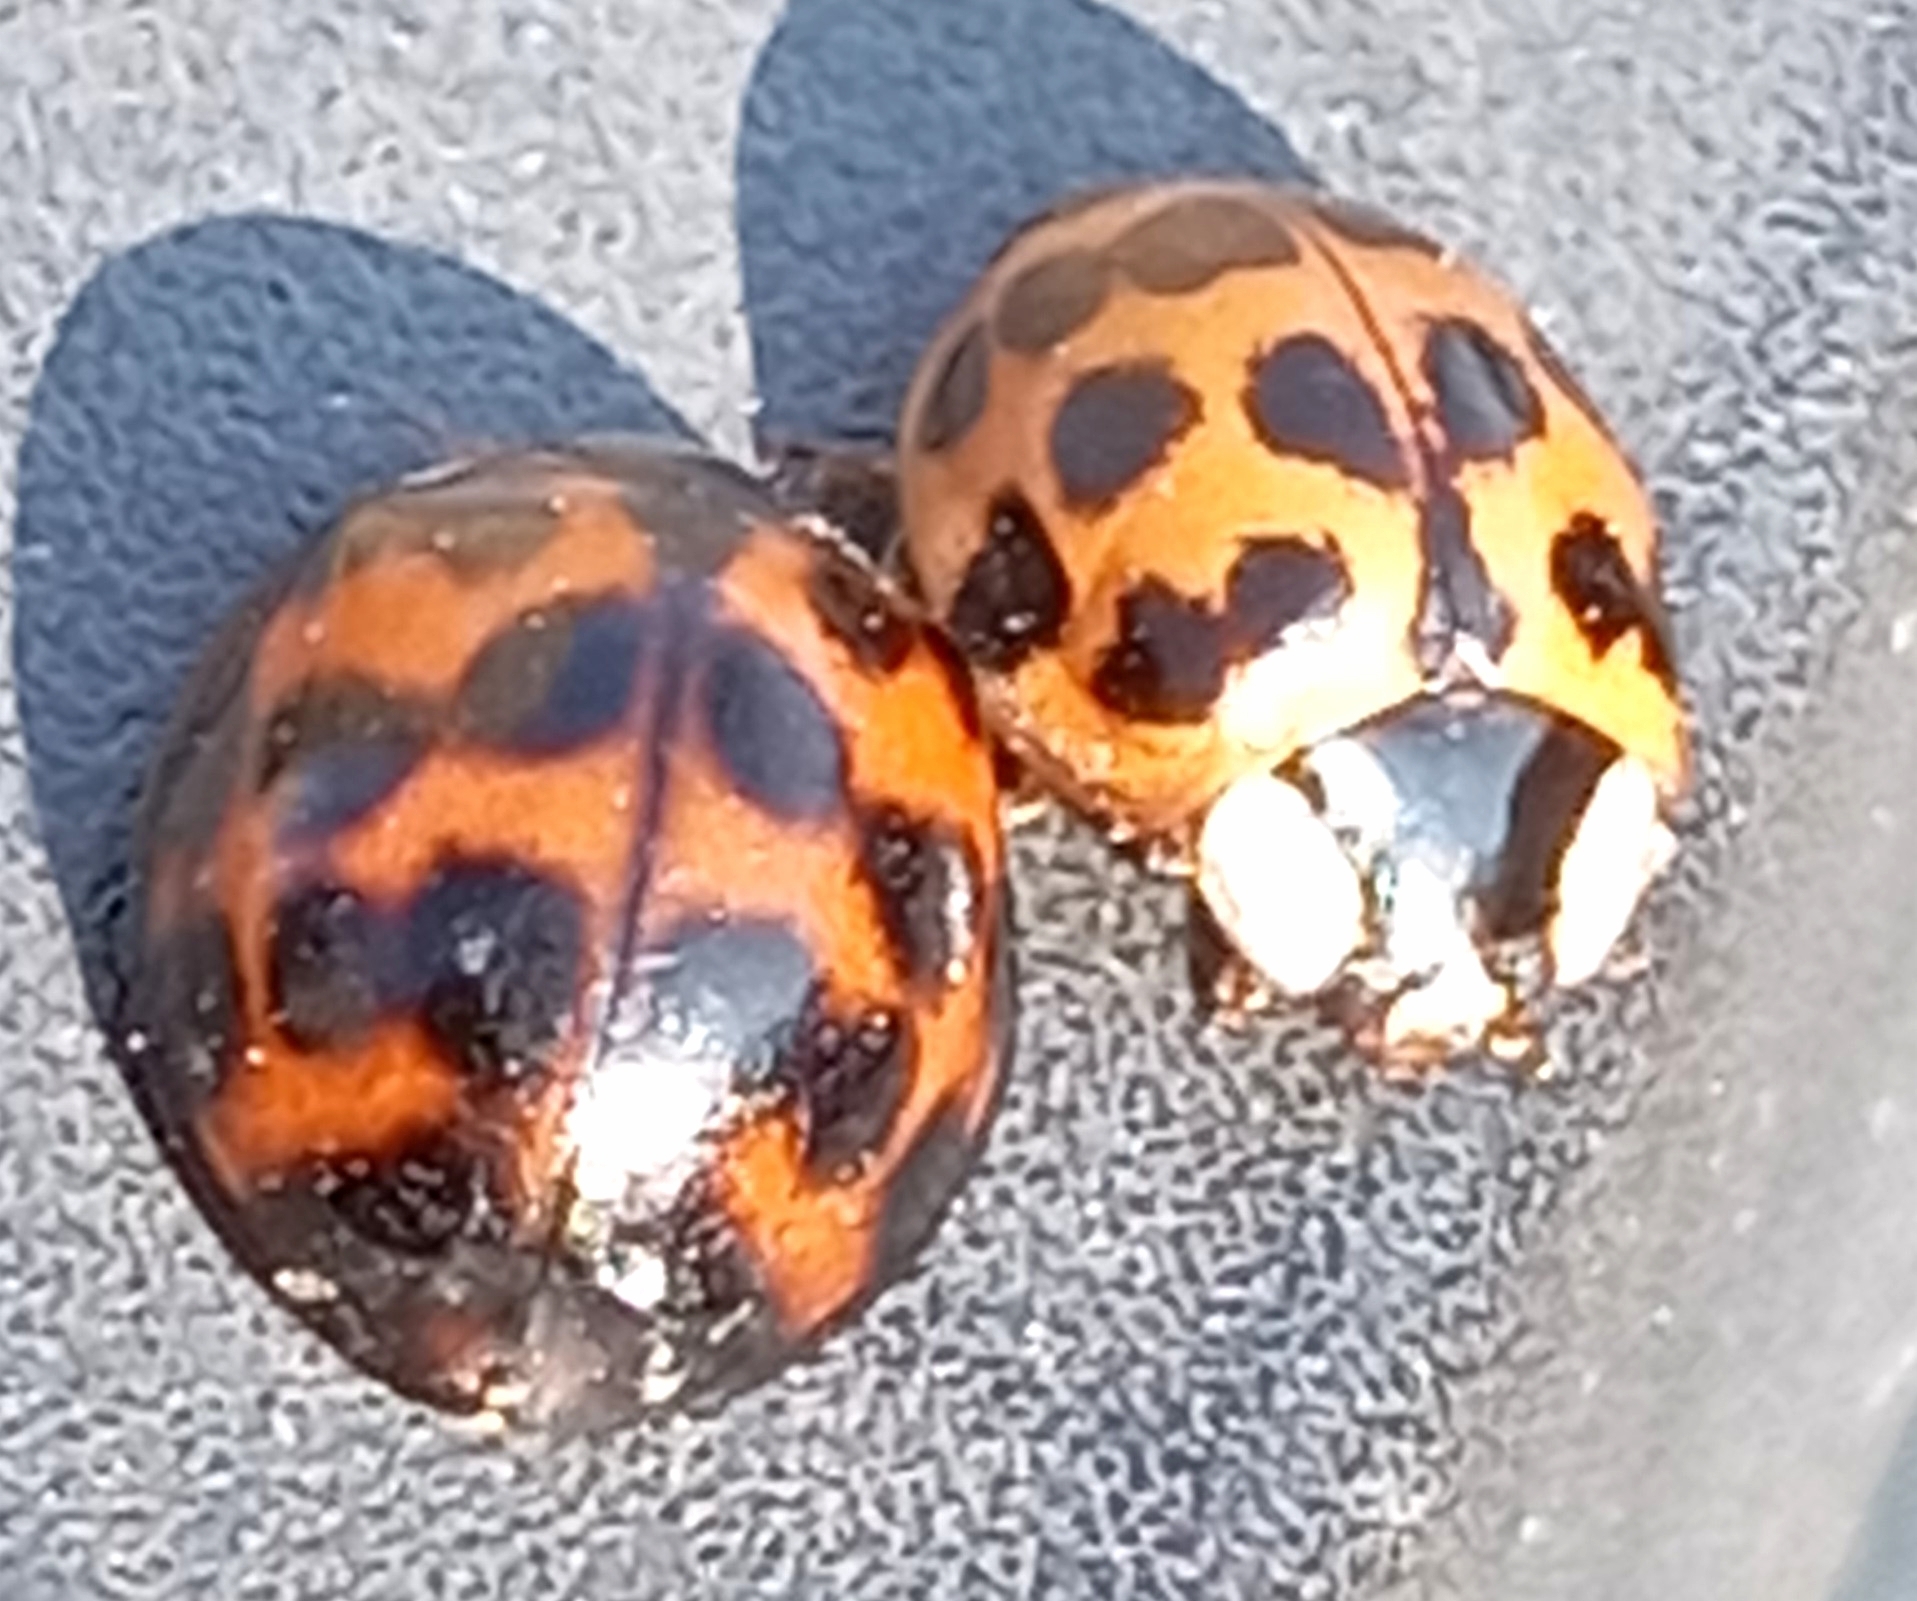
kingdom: Animalia
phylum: Arthropoda
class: Insecta
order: Coleoptera
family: Coccinellidae
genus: Harmonia
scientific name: Harmonia axyridis
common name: Harlequin ladybird
